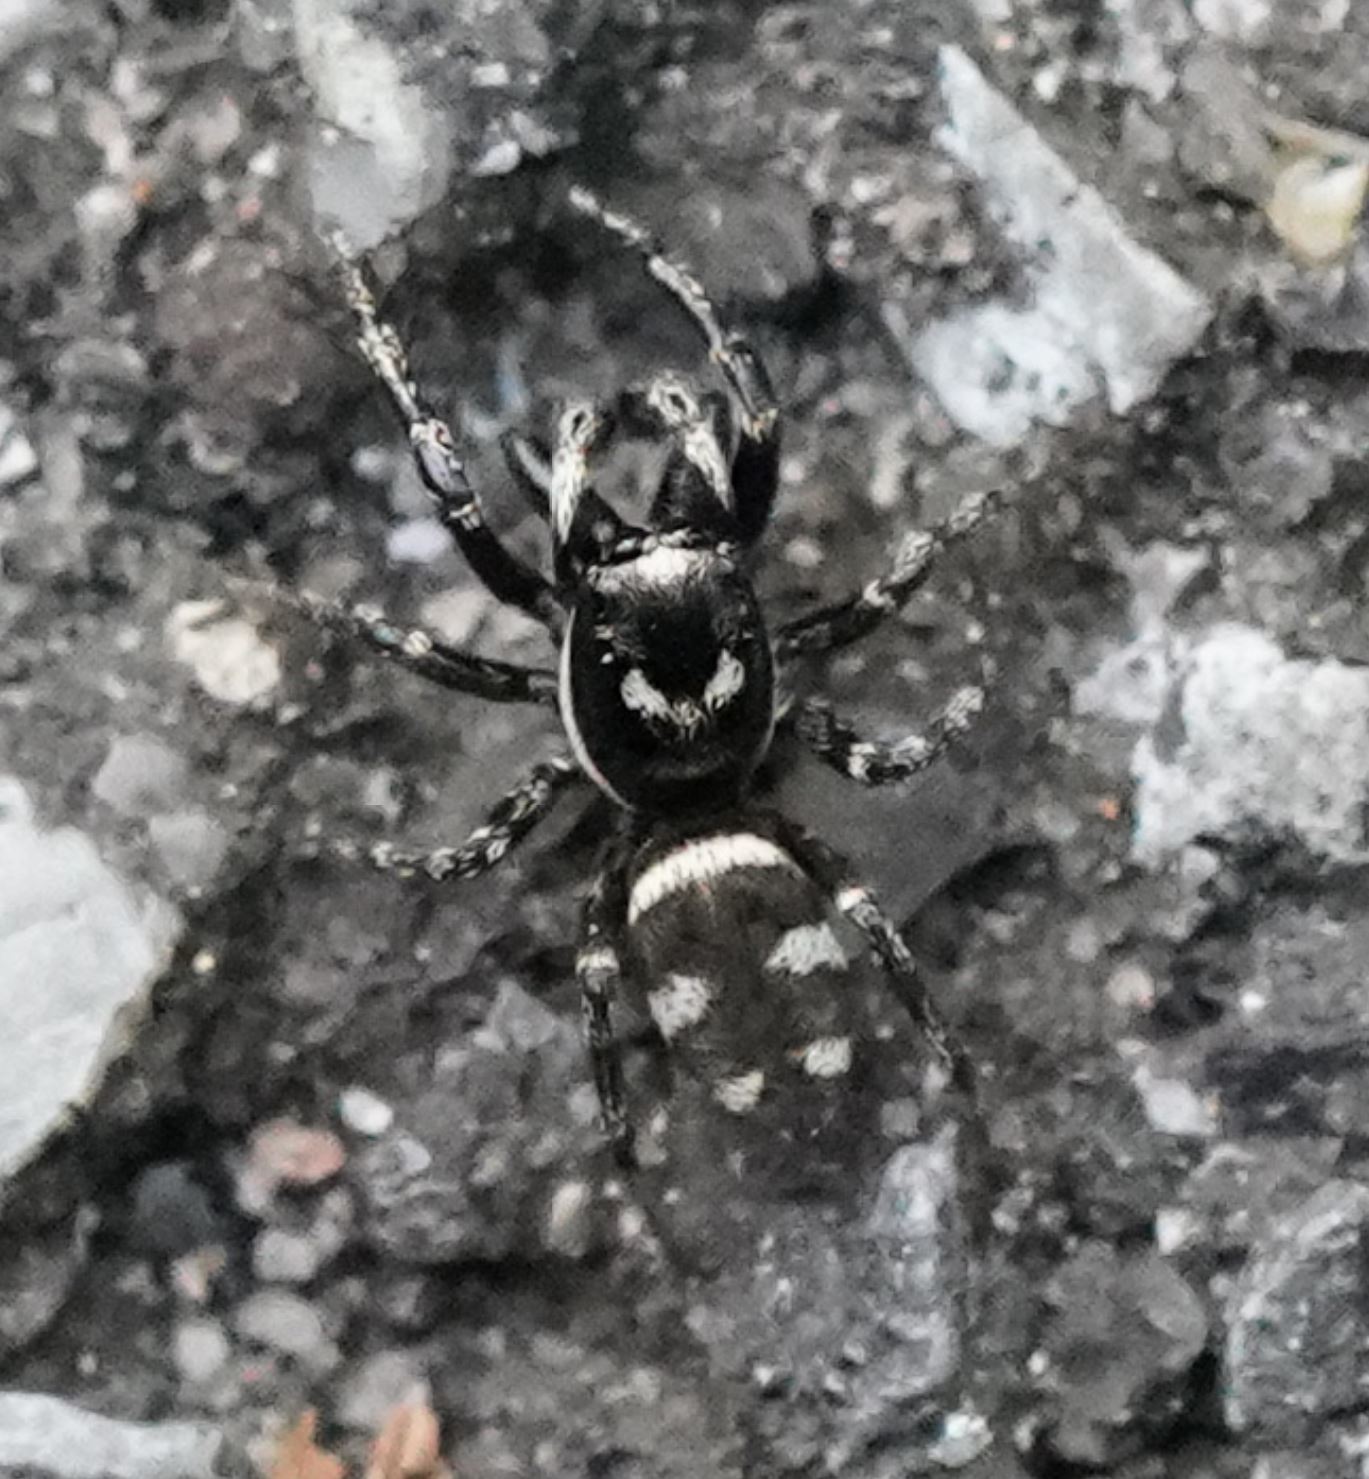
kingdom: Animalia
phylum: Arthropoda
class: Arachnida
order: Araneae
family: Salticidae
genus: Salticus
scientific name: Salticus scenicus
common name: Zebra jumper
